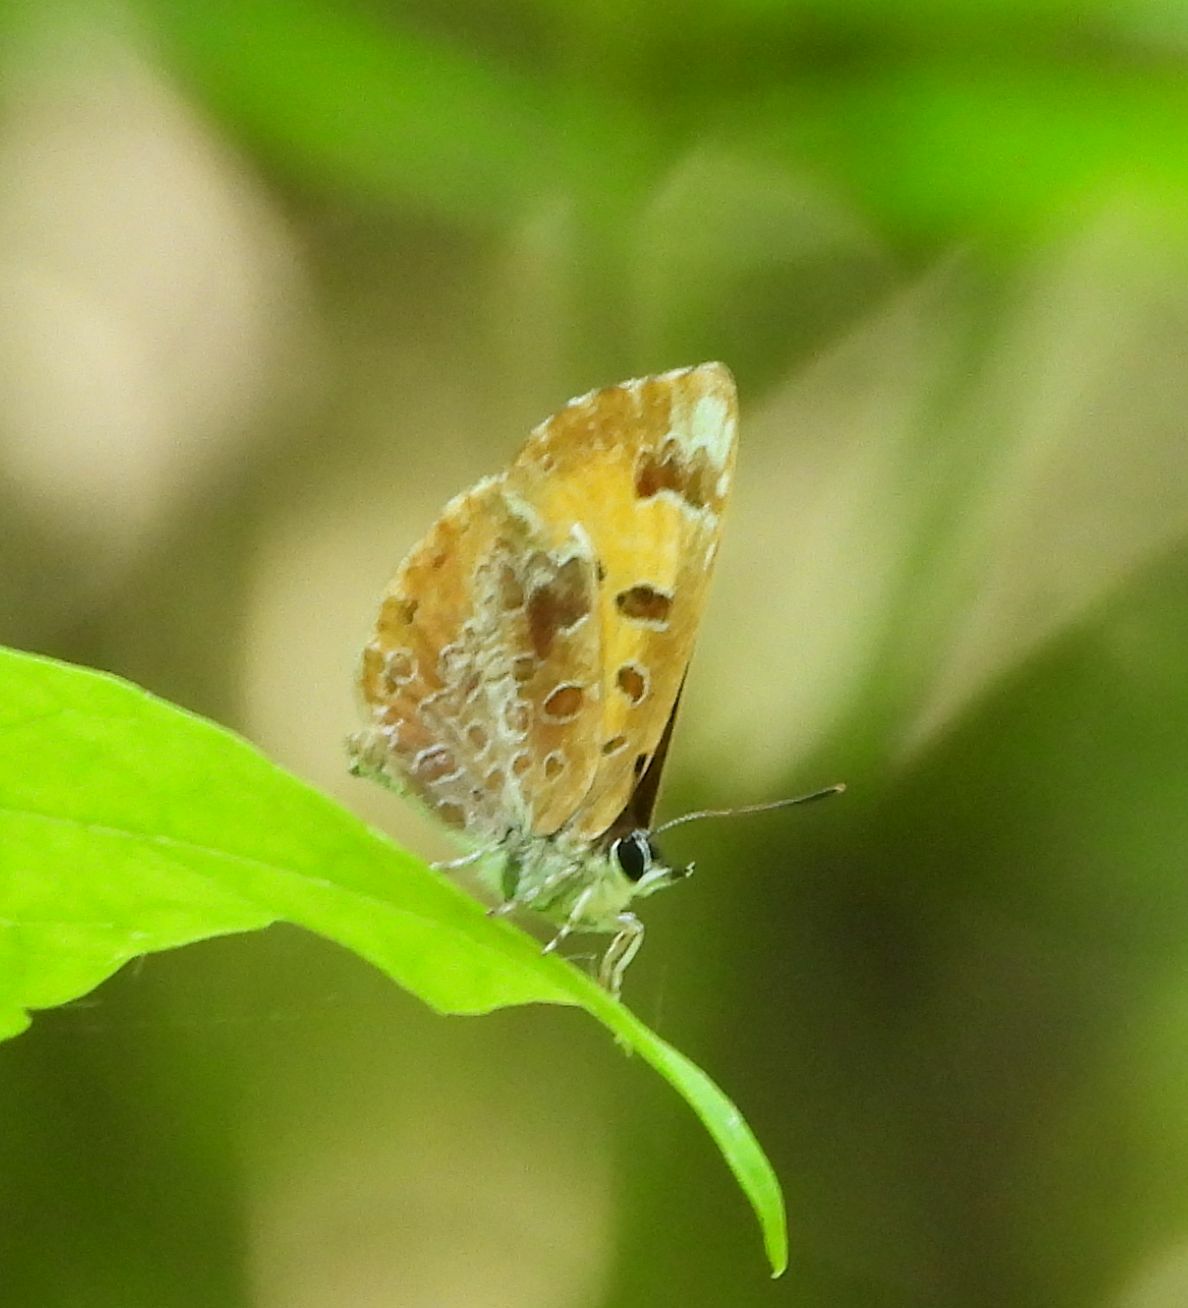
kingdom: Animalia
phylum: Arthropoda
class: Insecta
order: Lepidoptera
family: Lycaenidae
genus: Feniseca
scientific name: Feniseca tarquinius
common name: Harvester
